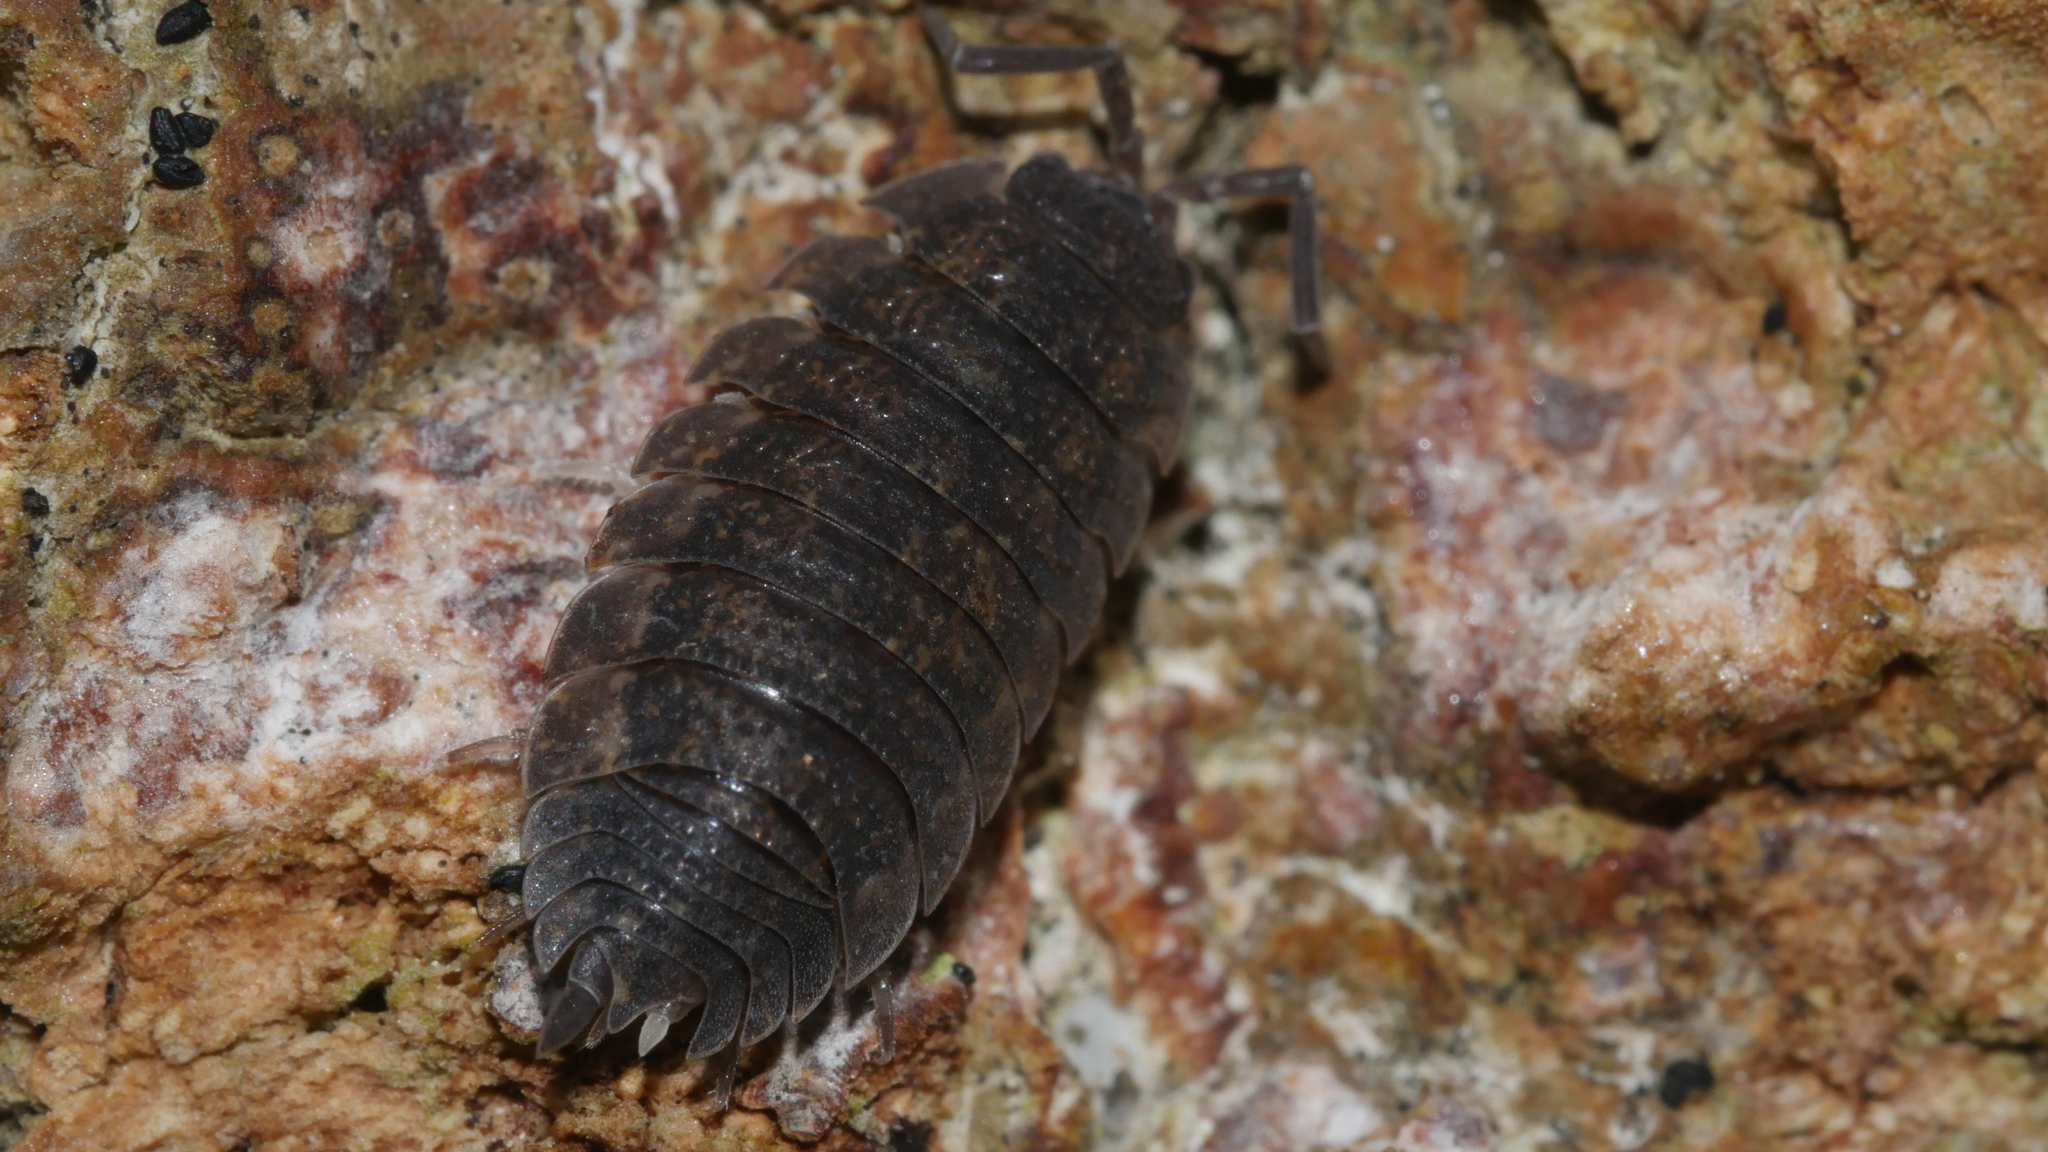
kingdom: Animalia
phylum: Arthropoda
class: Malacostraca
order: Isopoda
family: Porcellionidae
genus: Porcellio
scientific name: Porcellio scaber
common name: Common rough woodlouse
